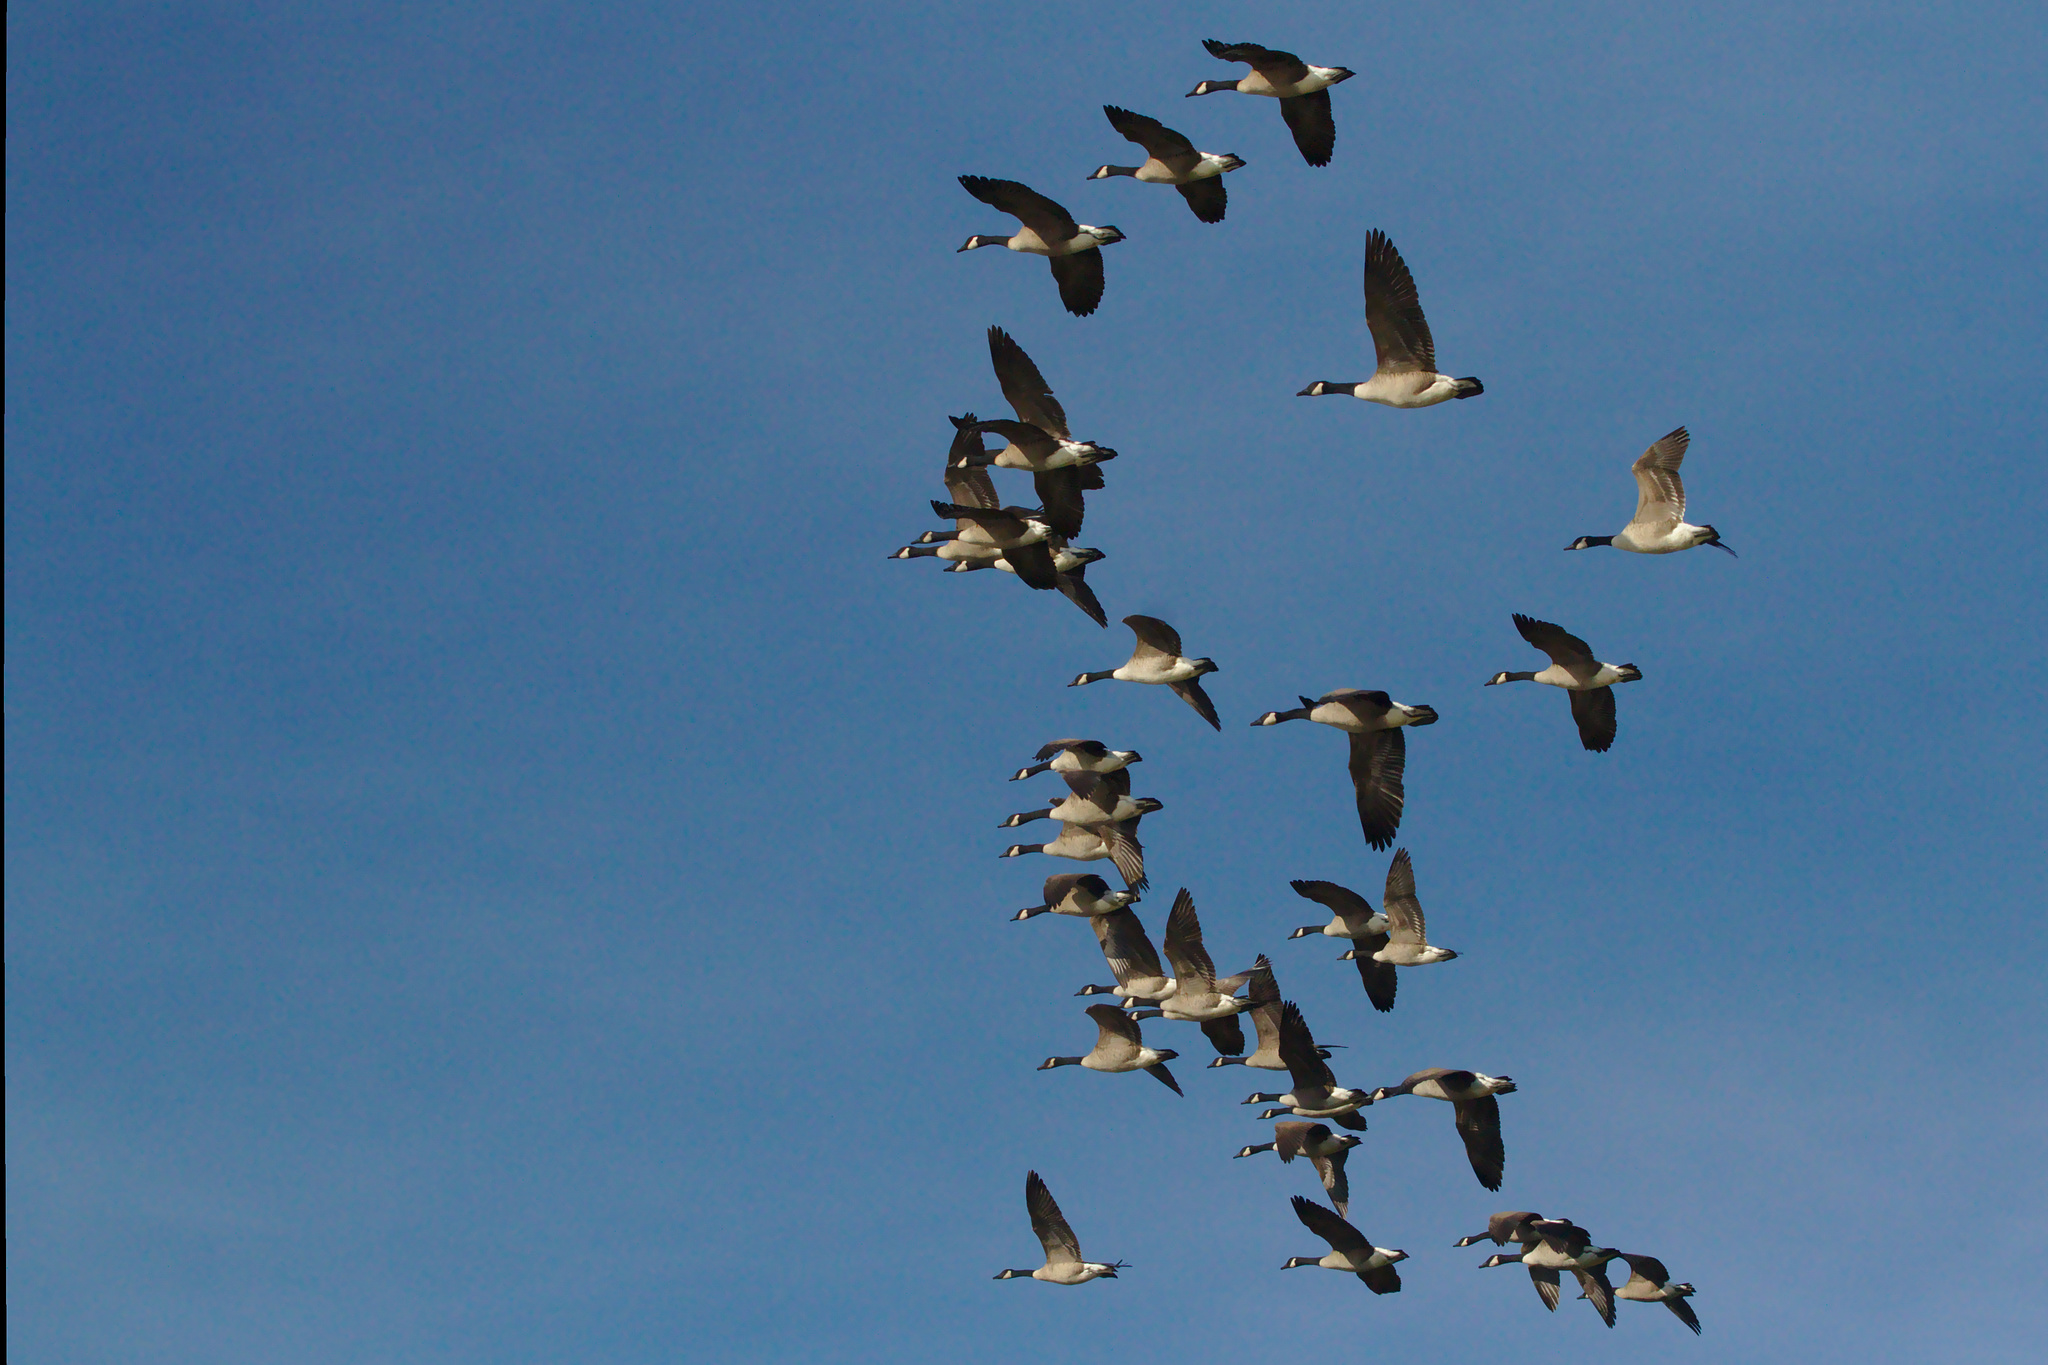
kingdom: Animalia
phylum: Chordata
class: Aves
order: Anseriformes
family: Anatidae
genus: Branta
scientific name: Branta canadensis
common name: Canada goose
